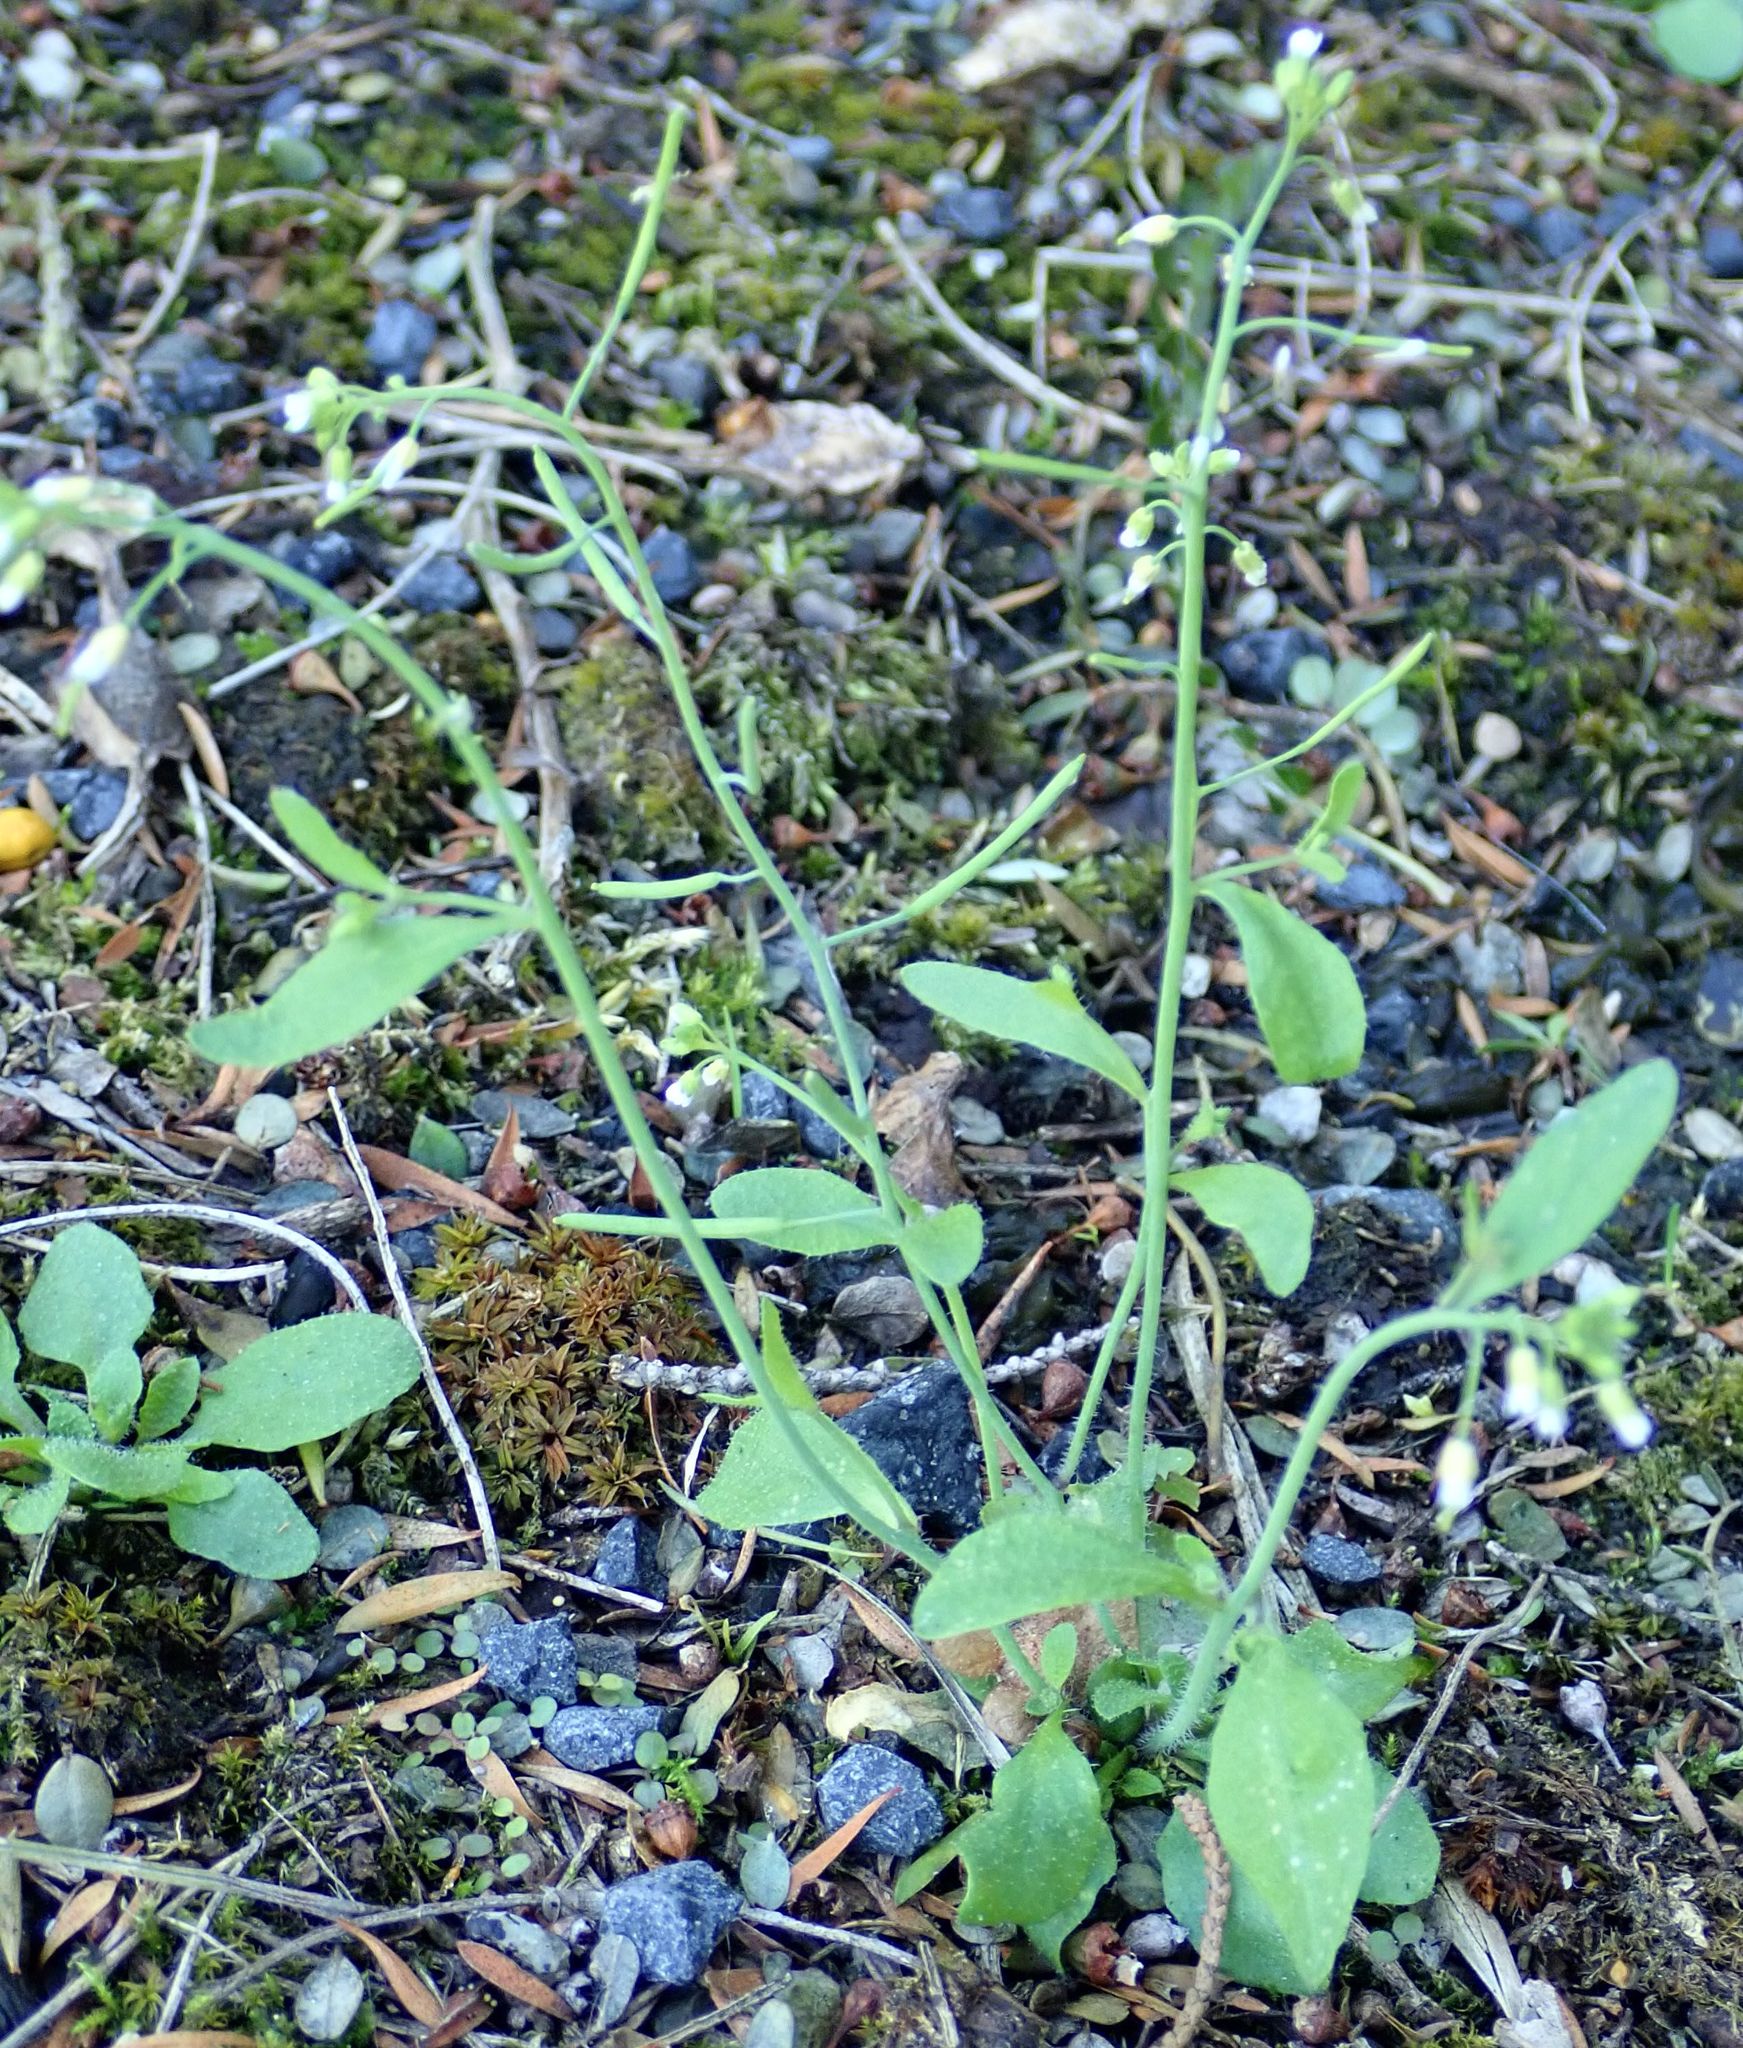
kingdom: Plantae
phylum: Tracheophyta
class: Magnoliopsida
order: Brassicales
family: Brassicaceae
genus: Arabidopsis
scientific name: Arabidopsis thaliana
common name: Thale cress
